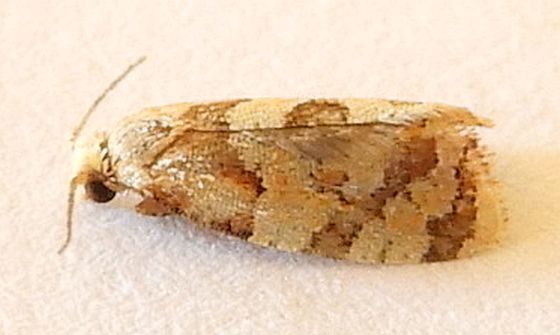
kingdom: Animalia
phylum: Arthropoda
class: Insecta
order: Lepidoptera
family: Tortricidae
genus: Hyptiharpa
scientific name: Hyptiharpa baboquavariana
